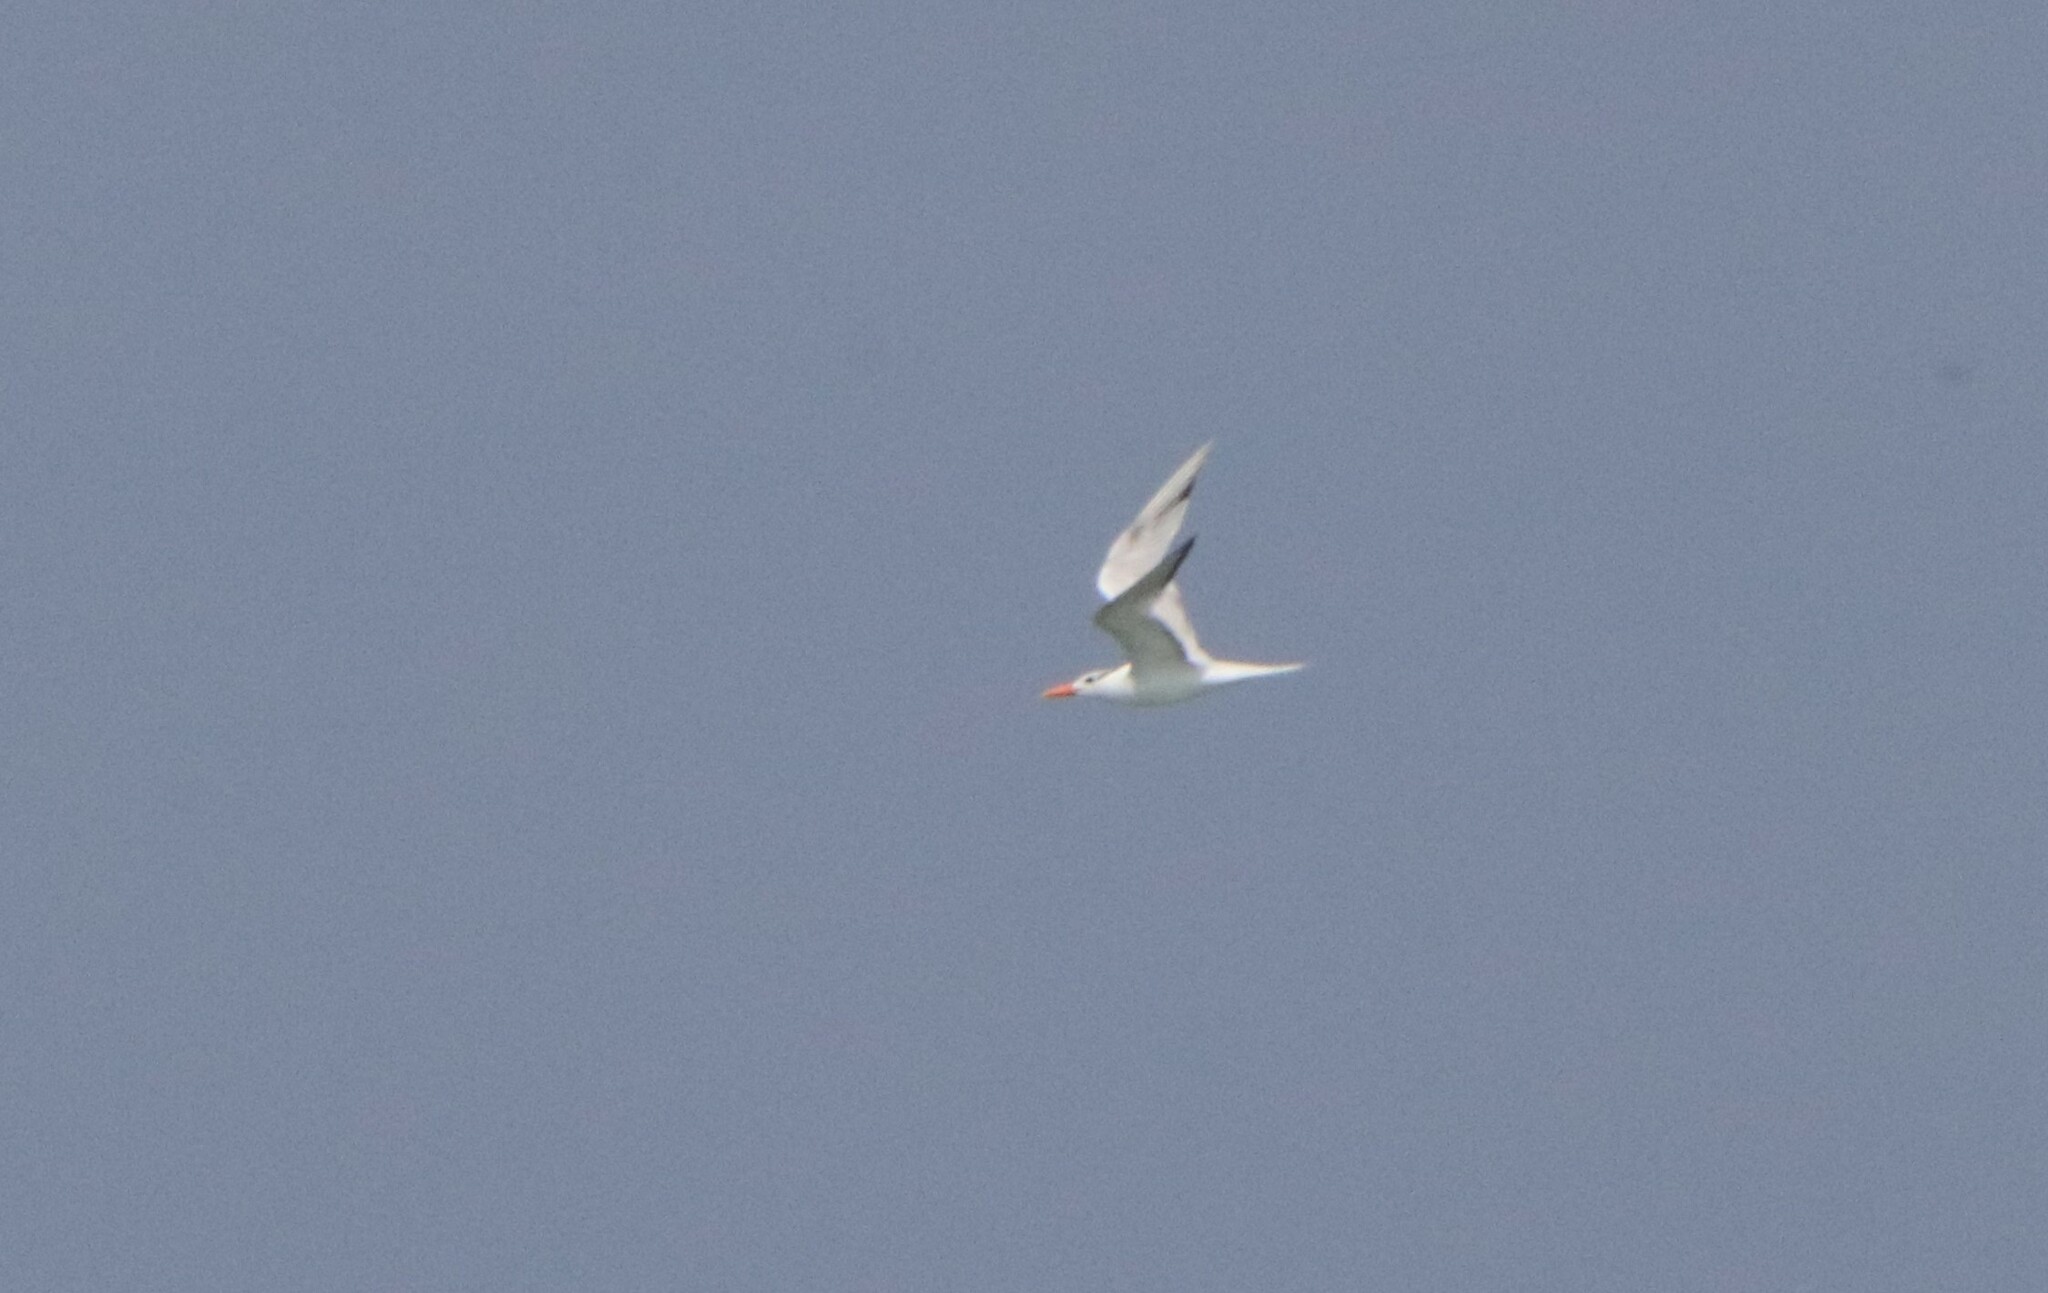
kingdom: Animalia
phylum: Chordata
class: Aves
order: Charadriiformes
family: Laridae
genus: Thalasseus
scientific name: Thalasseus maximus
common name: Royal tern
